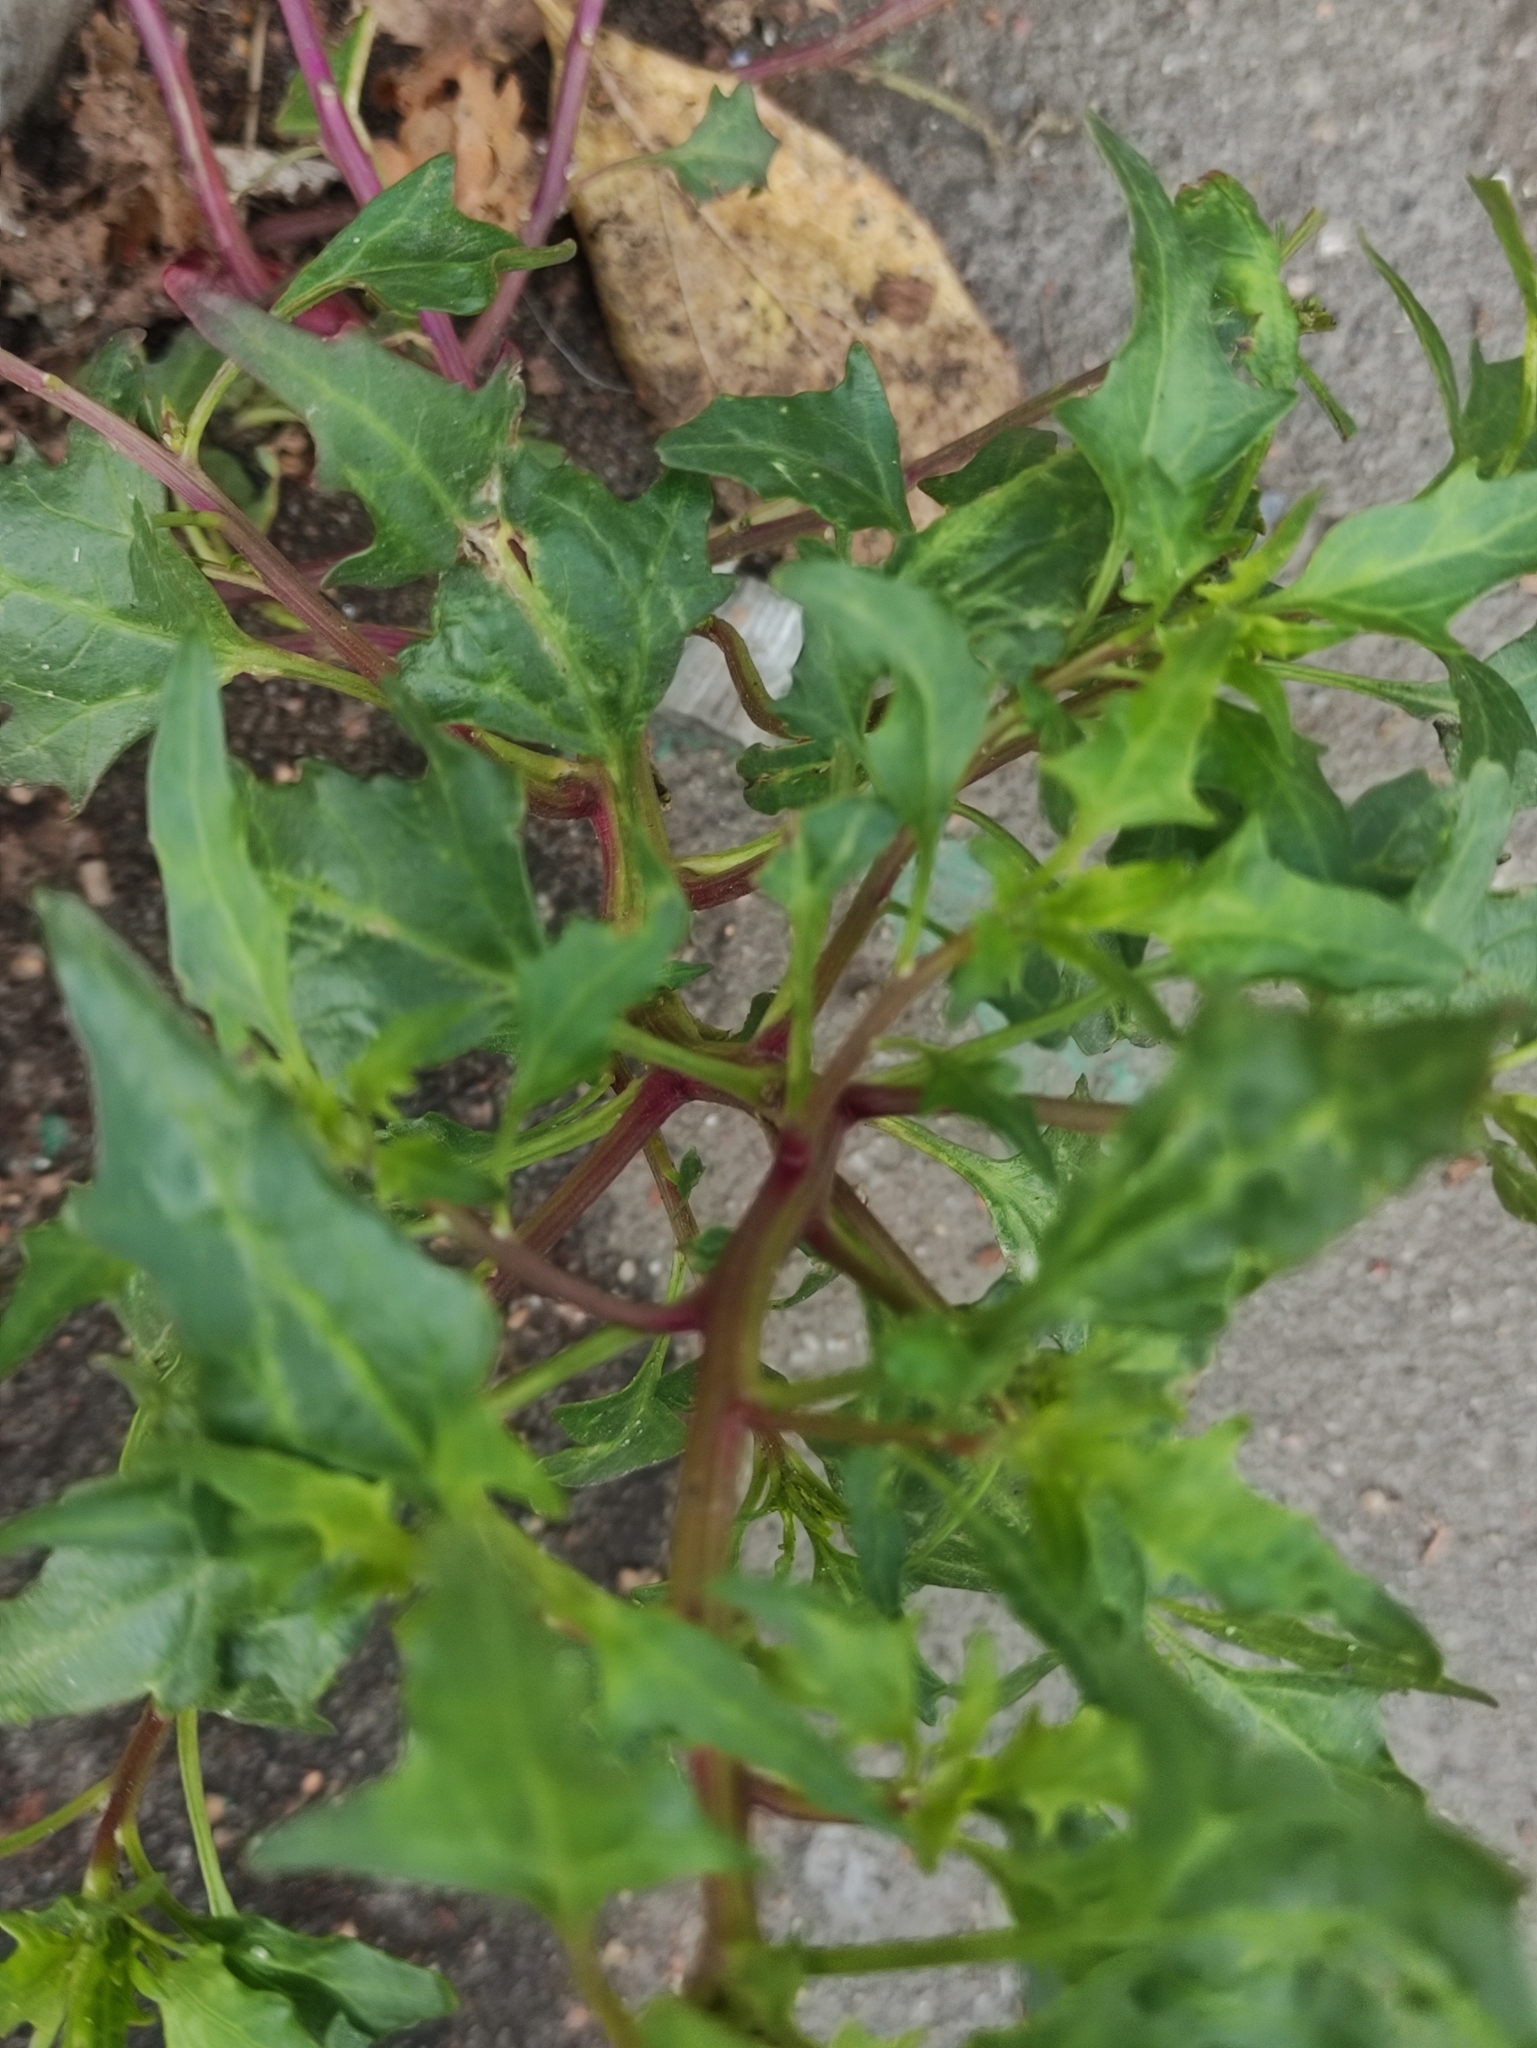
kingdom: Plantae
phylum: Tracheophyta
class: Magnoliopsida
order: Caryophyllales
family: Amaranthaceae
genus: Oxybasis
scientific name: Oxybasis rubra
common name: Red goosefoot
